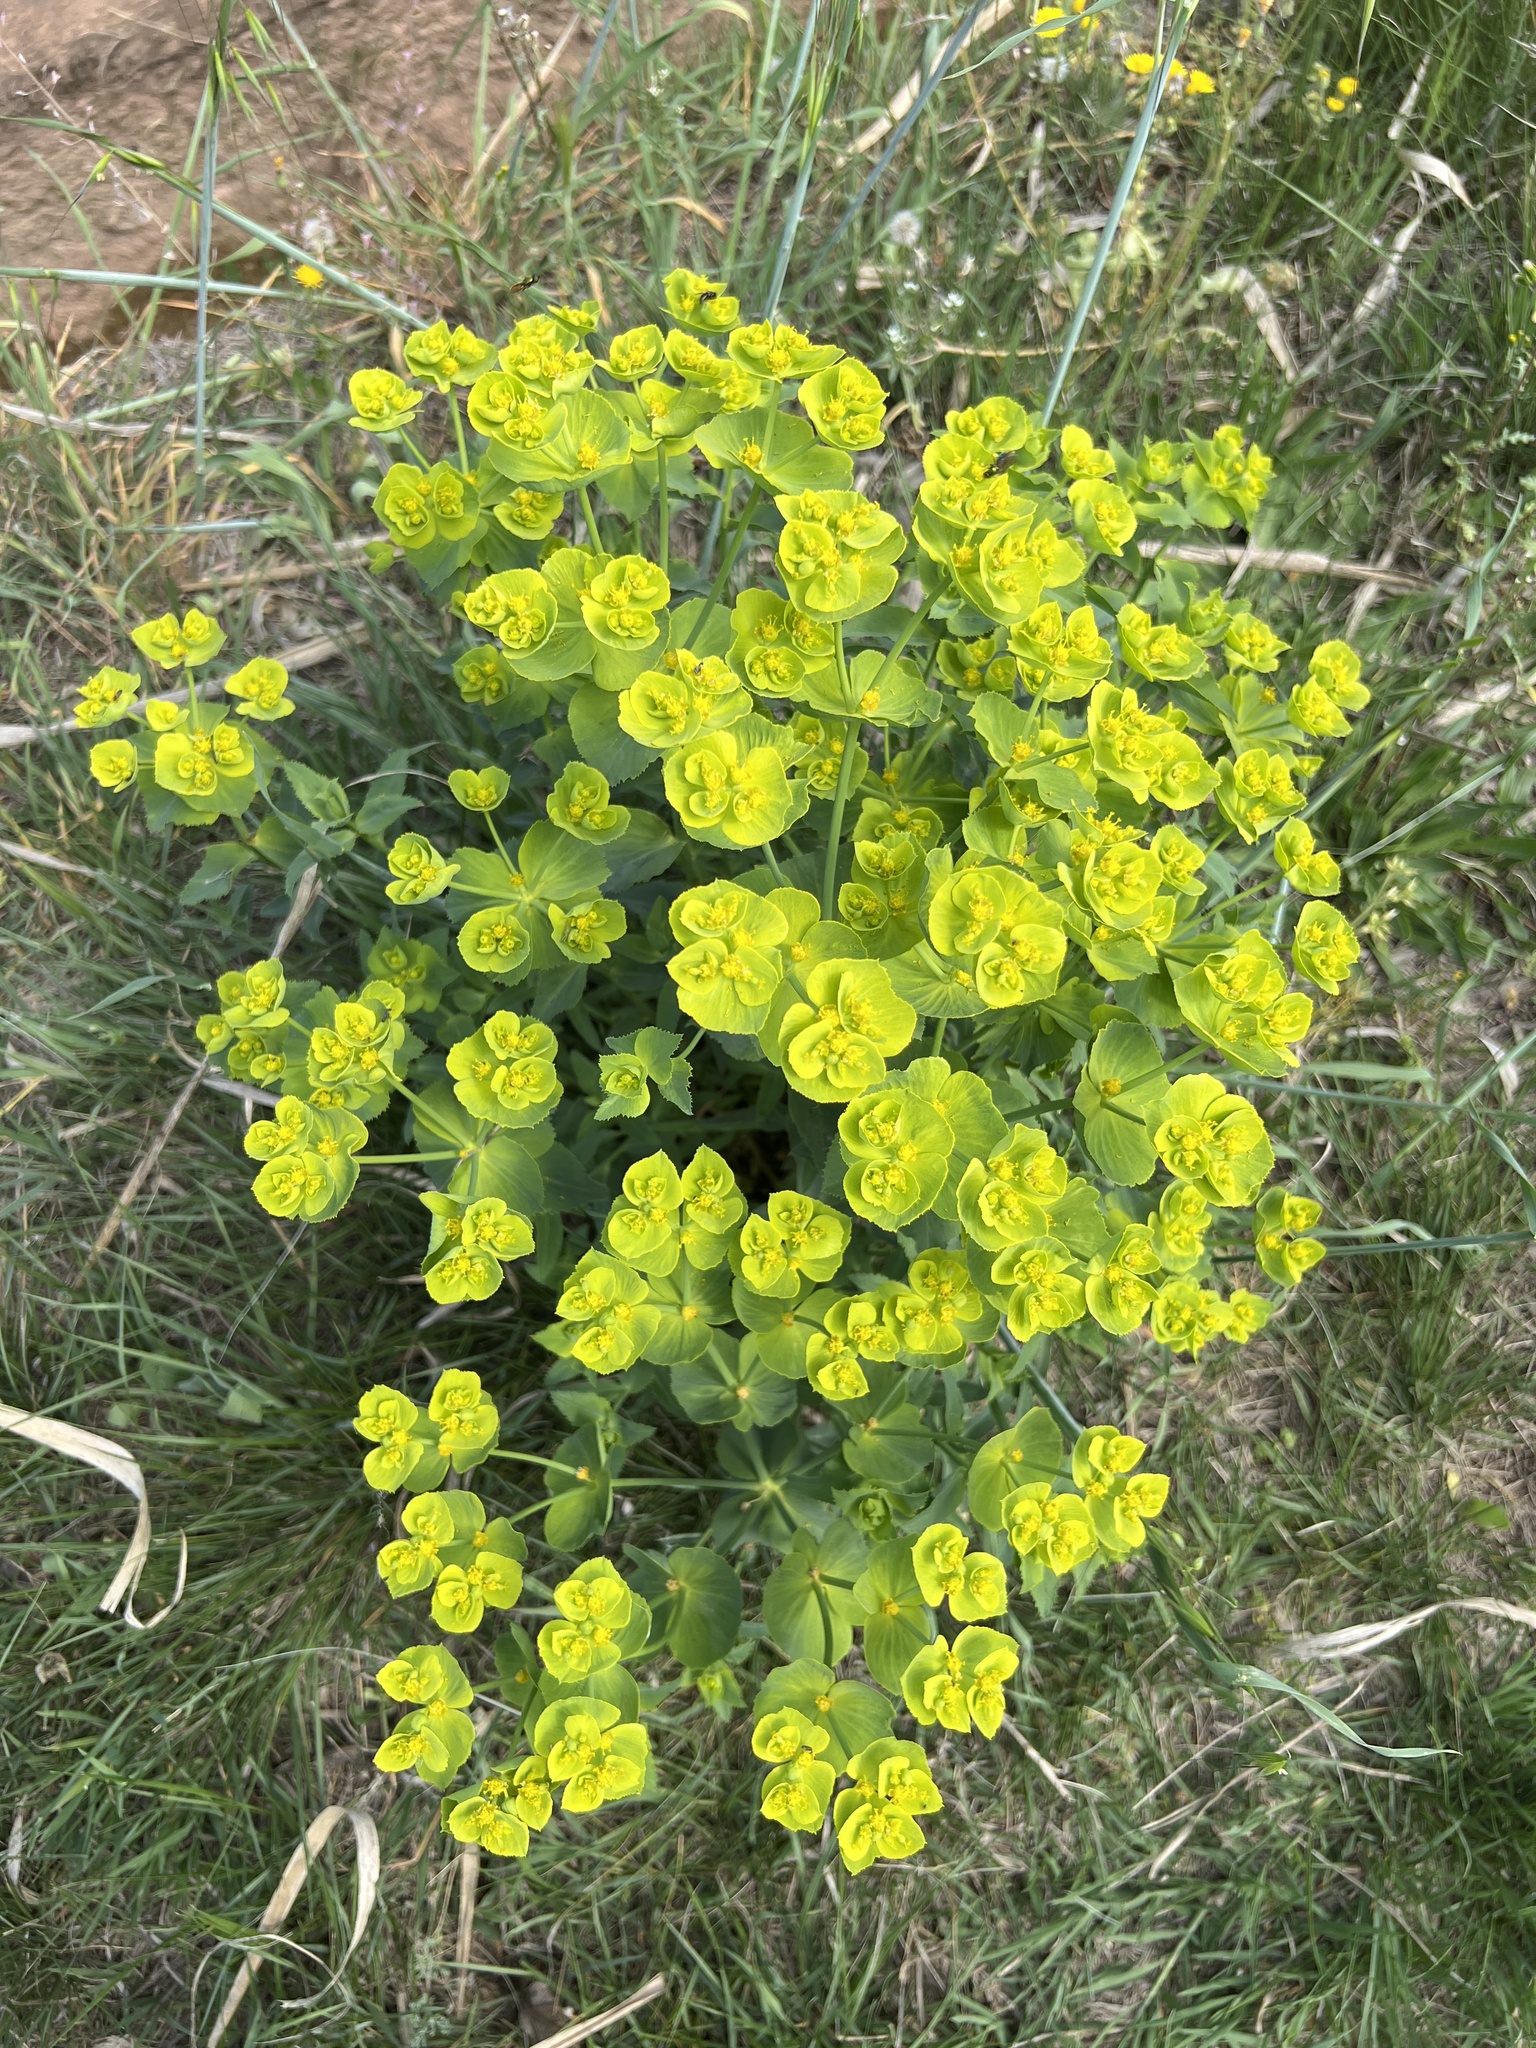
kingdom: Plantae
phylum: Tracheophyta
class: Magnoliopsida
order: Malpighiales
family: Euphorbiaceae
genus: Euphorbia
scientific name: Euphorbia serrata
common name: Serrate spurge
